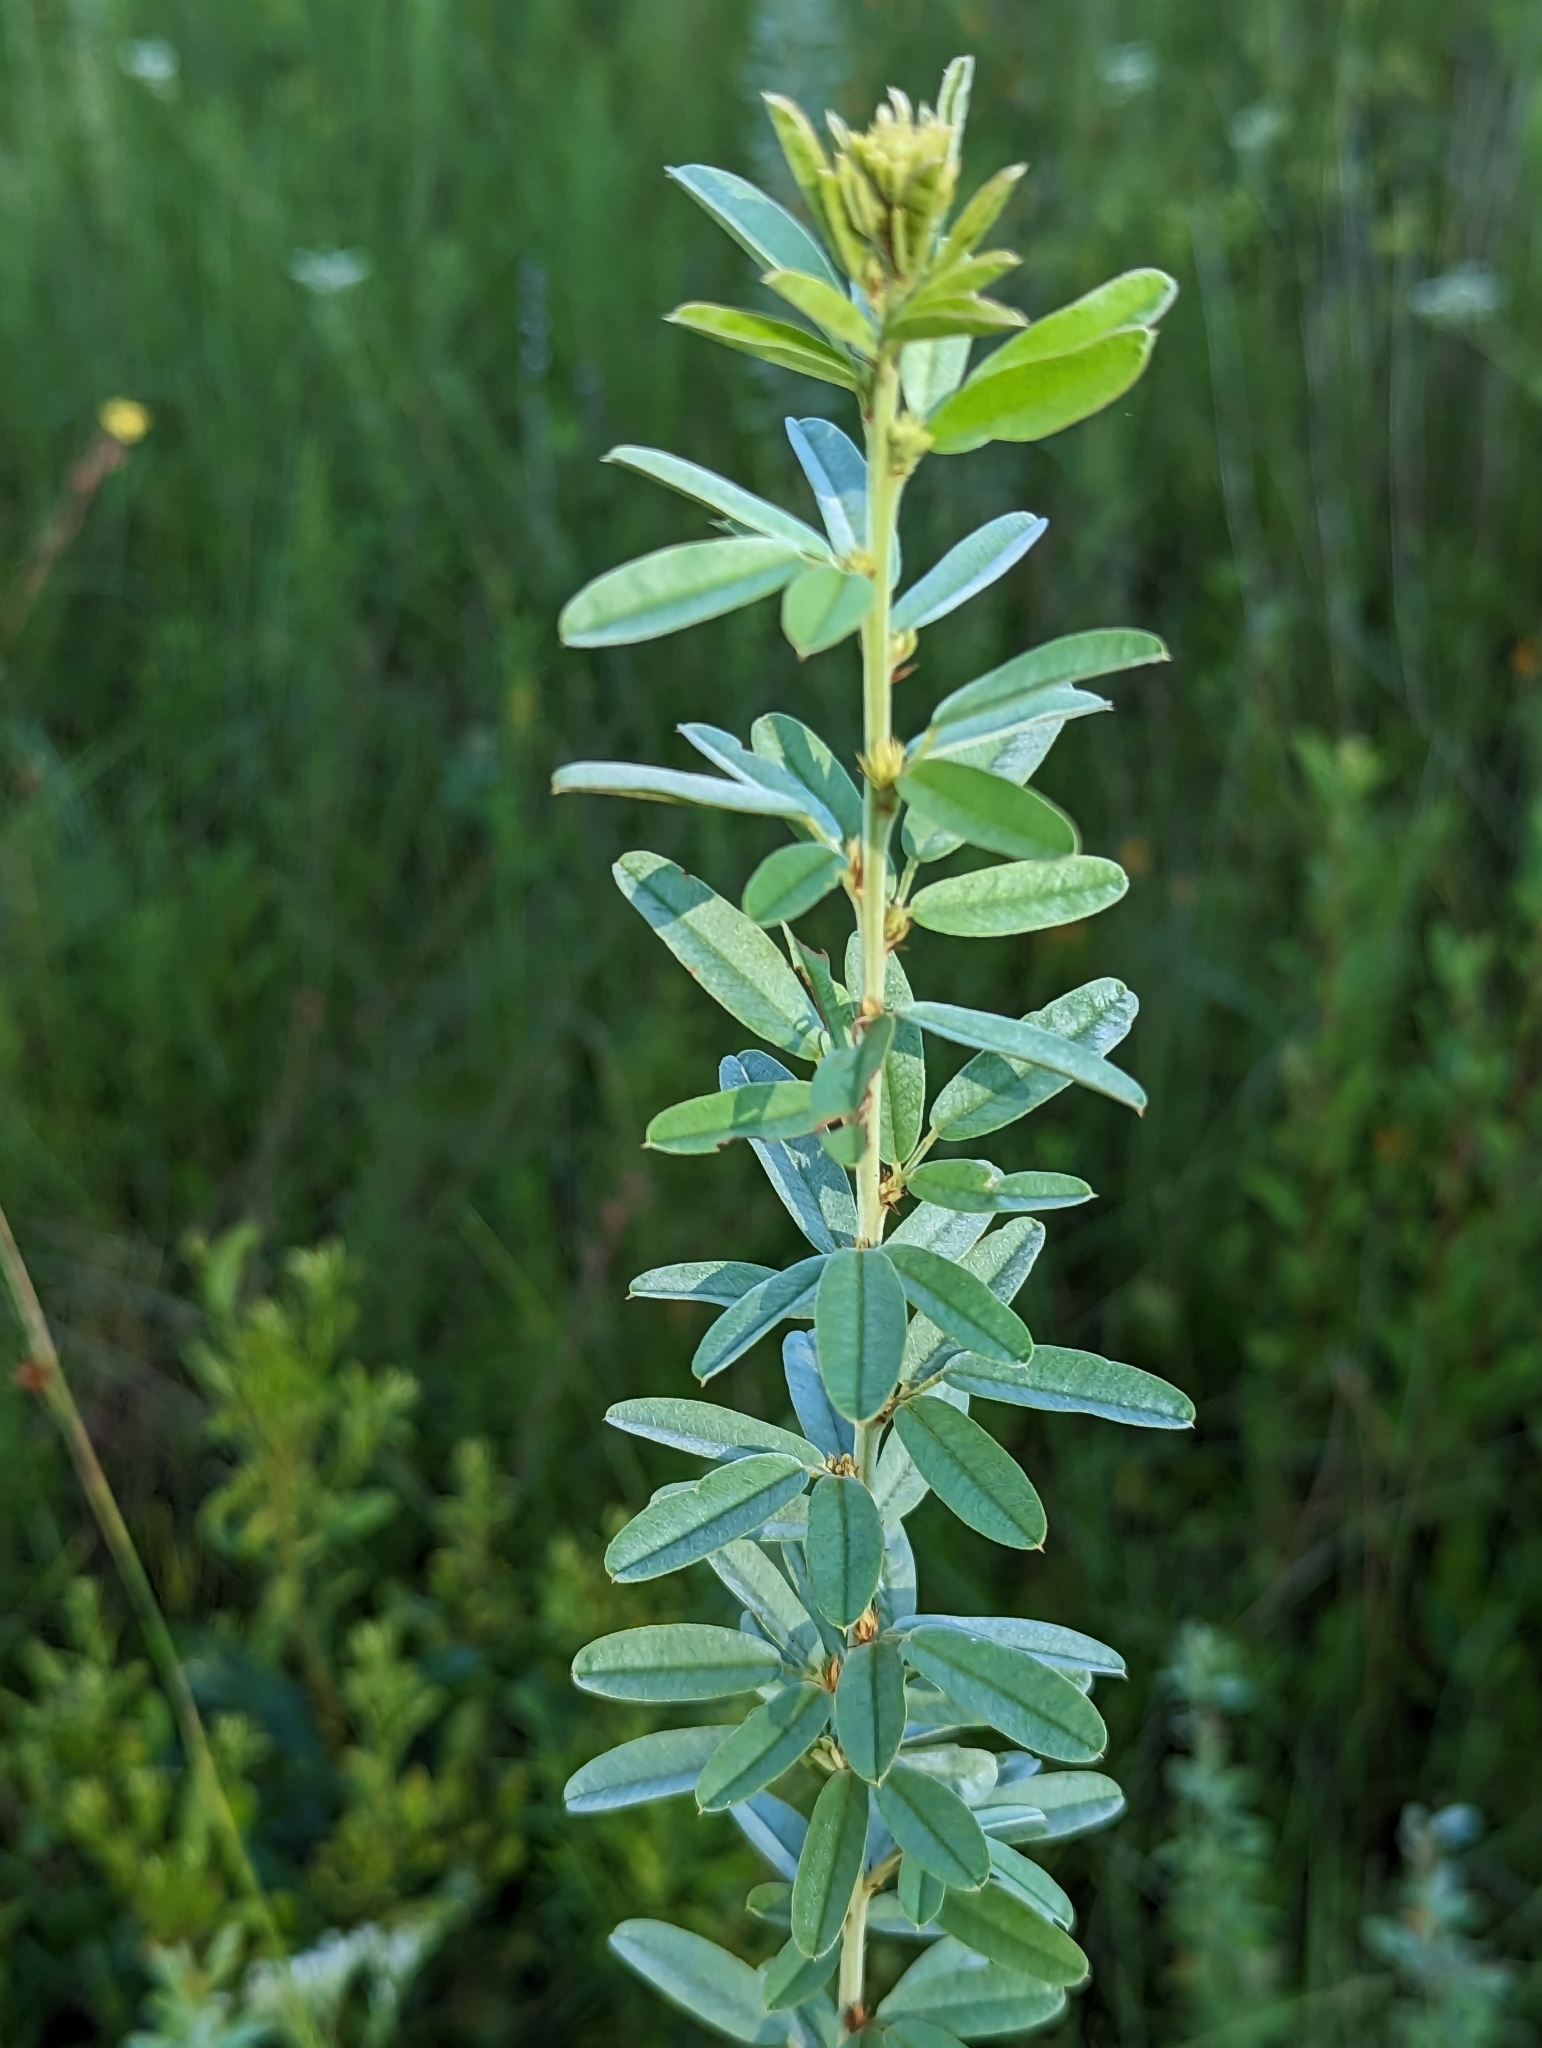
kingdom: Plantae
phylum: Tracheophyta
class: Magnoliopsida
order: Fabales
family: Fabaceae
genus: Lespedeza
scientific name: Lespedeza capitata
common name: Dusty clover
